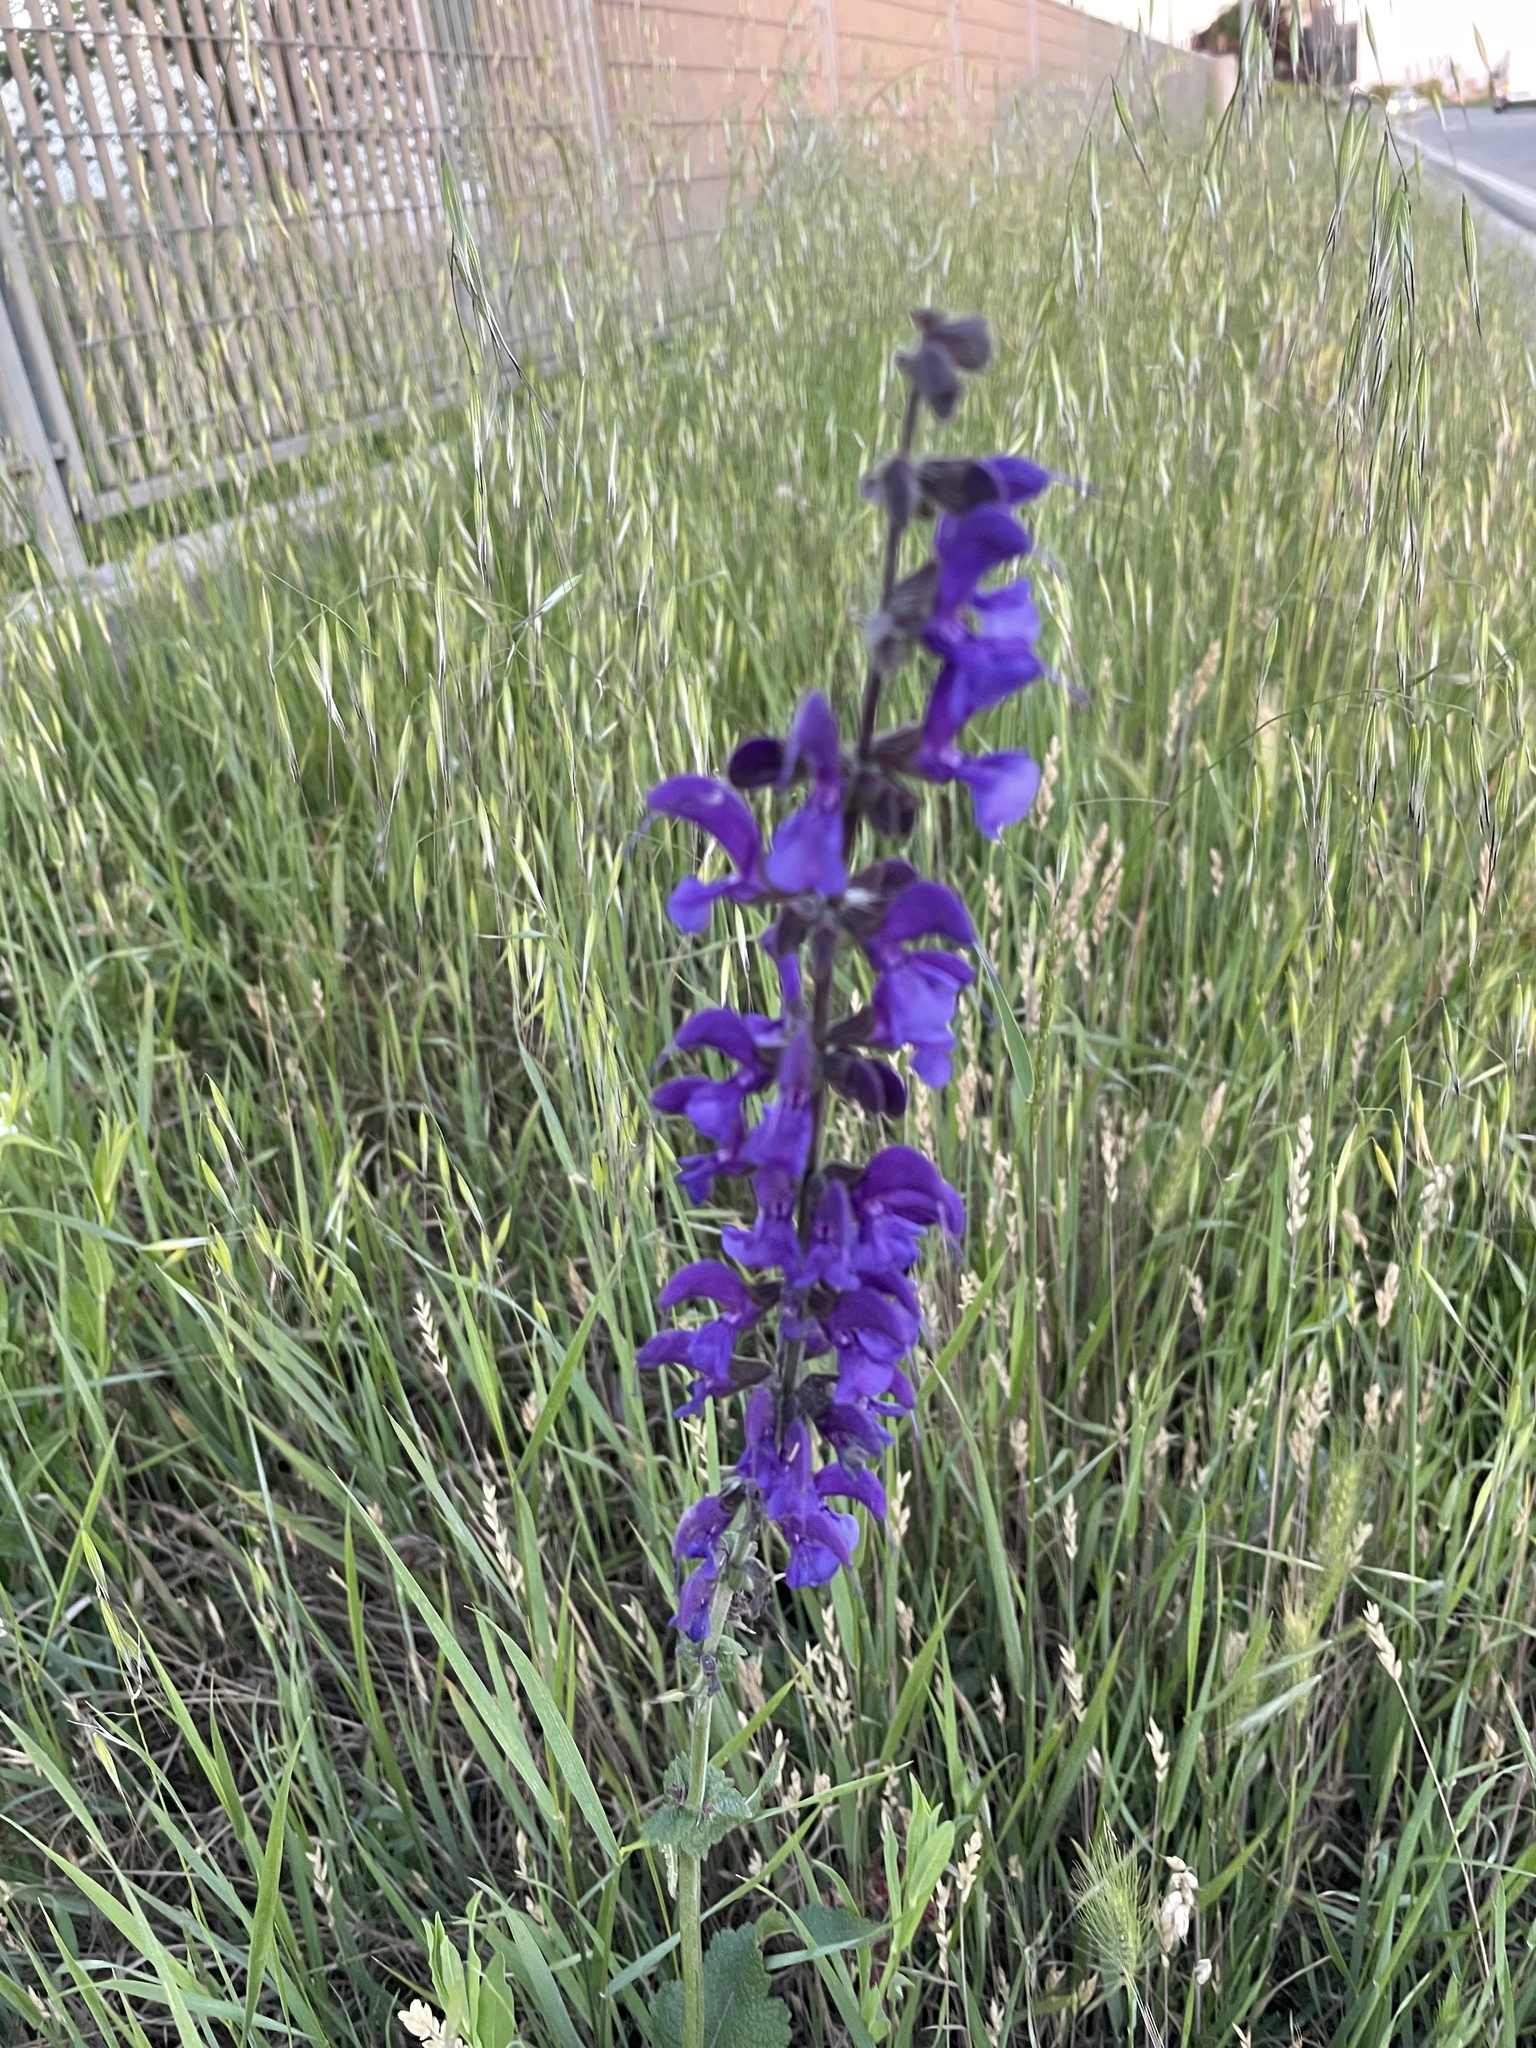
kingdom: Plantae
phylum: Tracheophyta
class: Magnoliopsida
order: Lamiales
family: Lamiaceae
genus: Salvia
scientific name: Salvia pratensis
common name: Meadow sage
